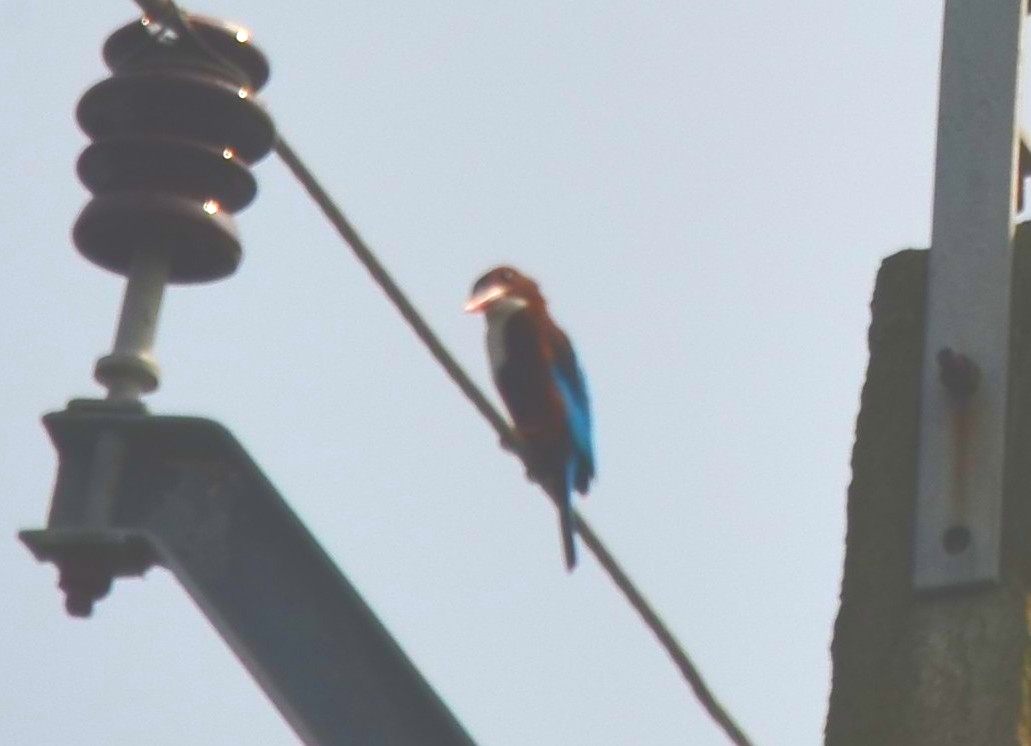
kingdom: Animalia
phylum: Chordata
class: Aves
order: Coraciiformes
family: Alcedinidae
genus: Halcyon
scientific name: Halcyon smyrnensis
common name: White-throated kingfisher
